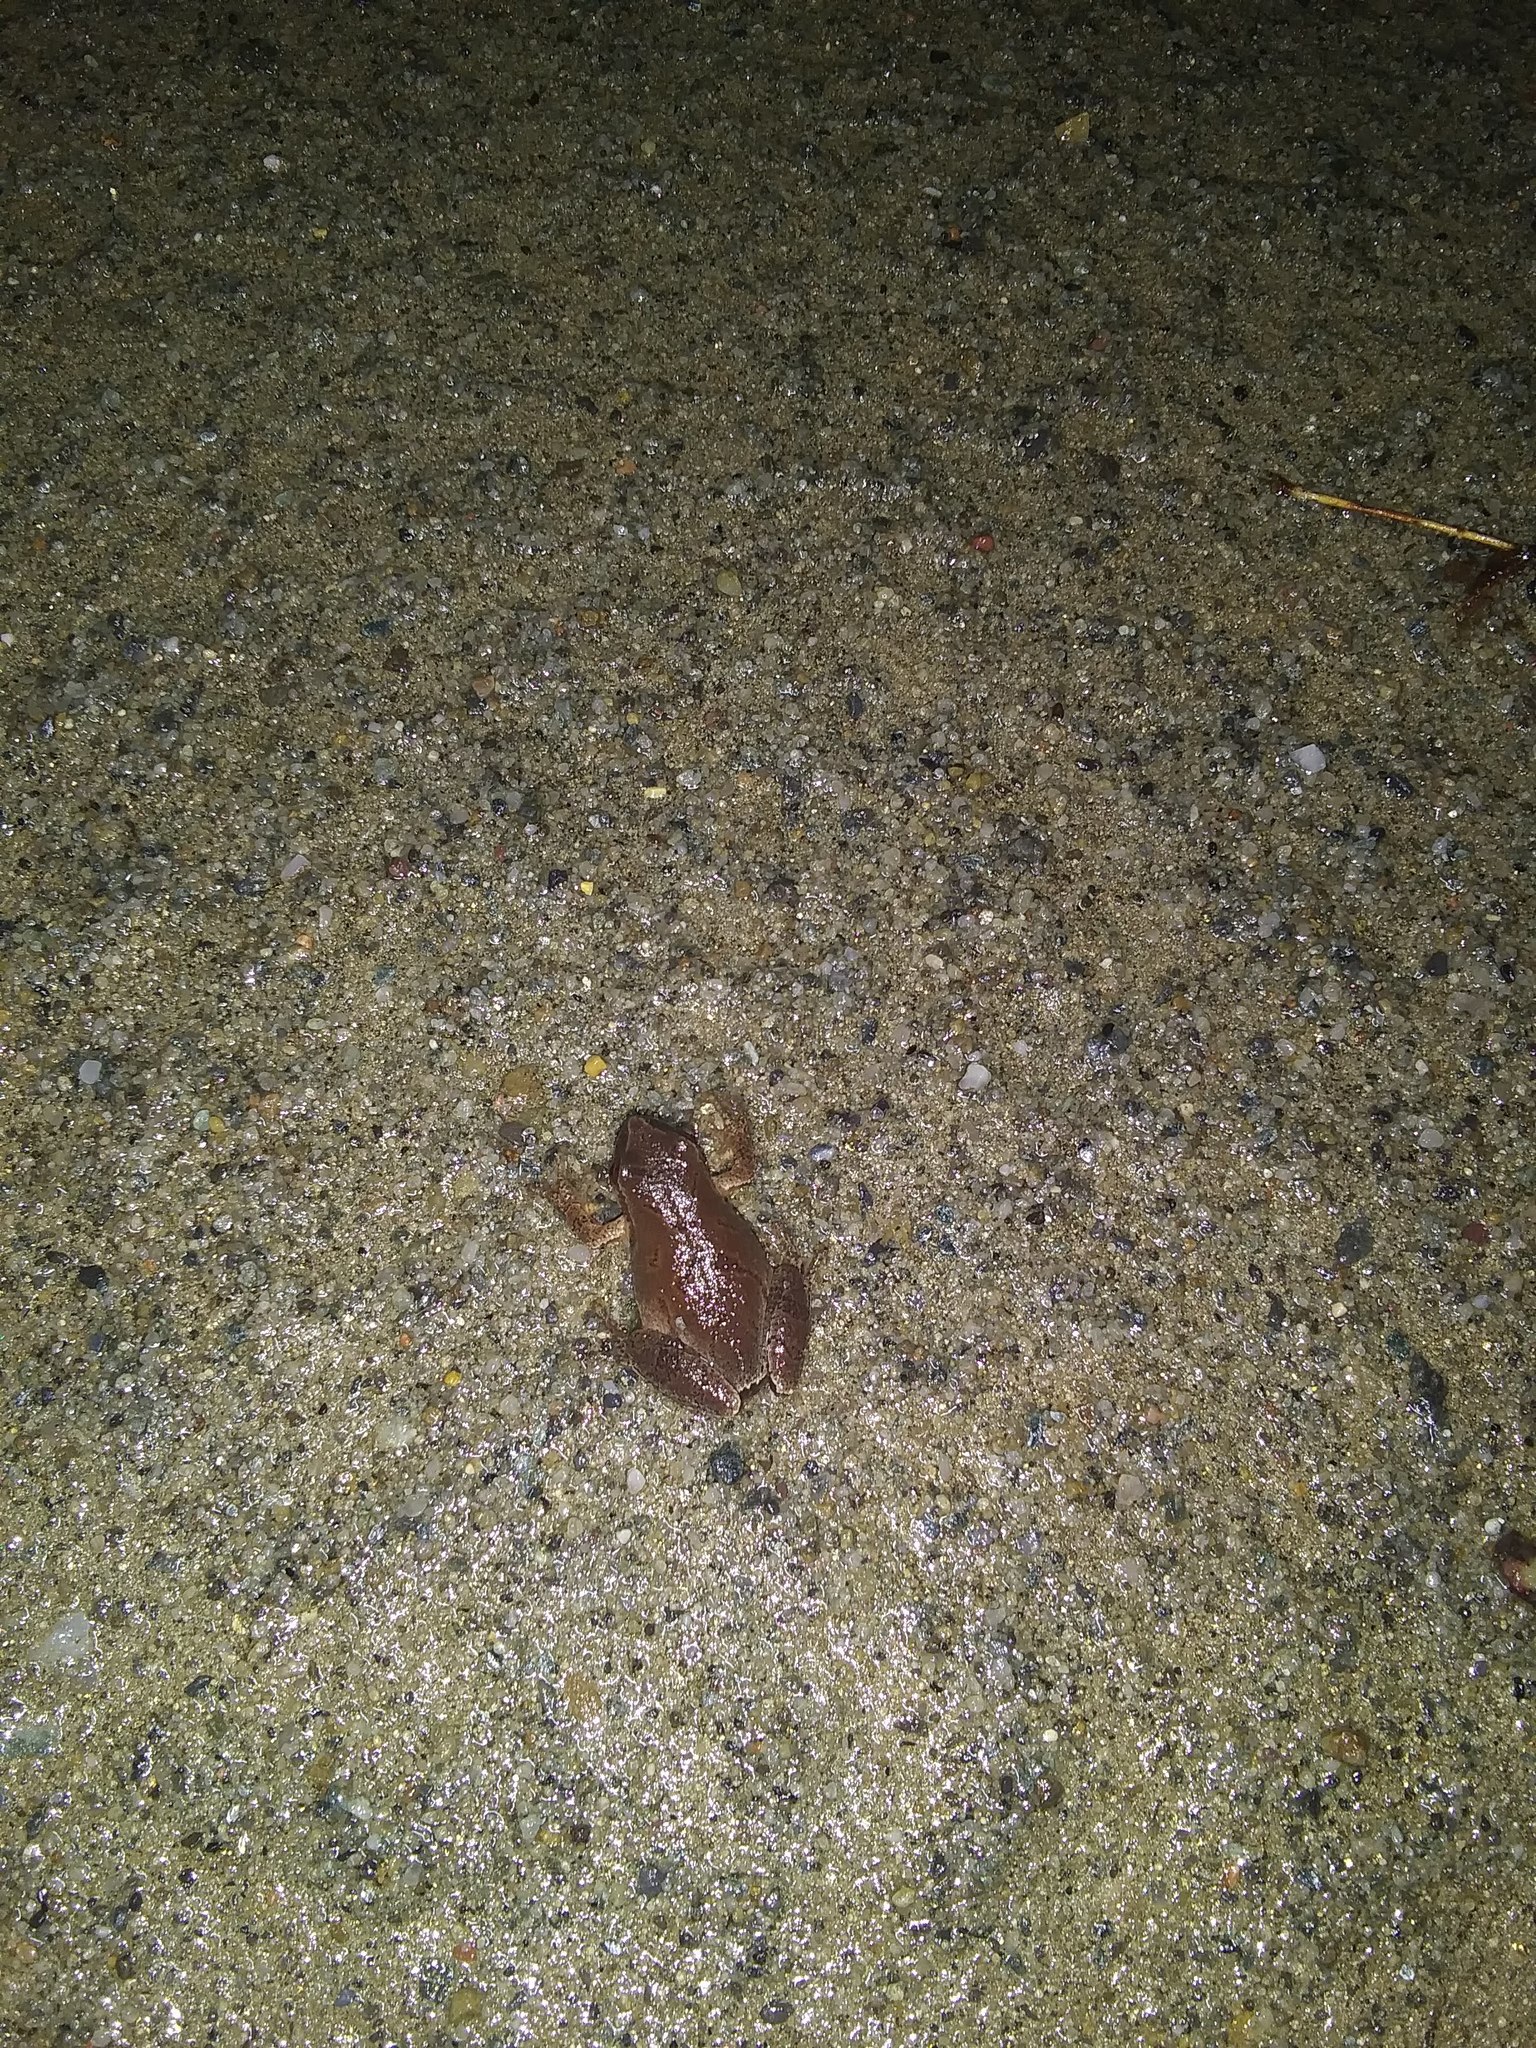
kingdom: Animalia
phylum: Chordata
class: Amphibia
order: Anura
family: Hylidae
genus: Pseudacris
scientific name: Pseudacris crucifer
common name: Spring peeper
